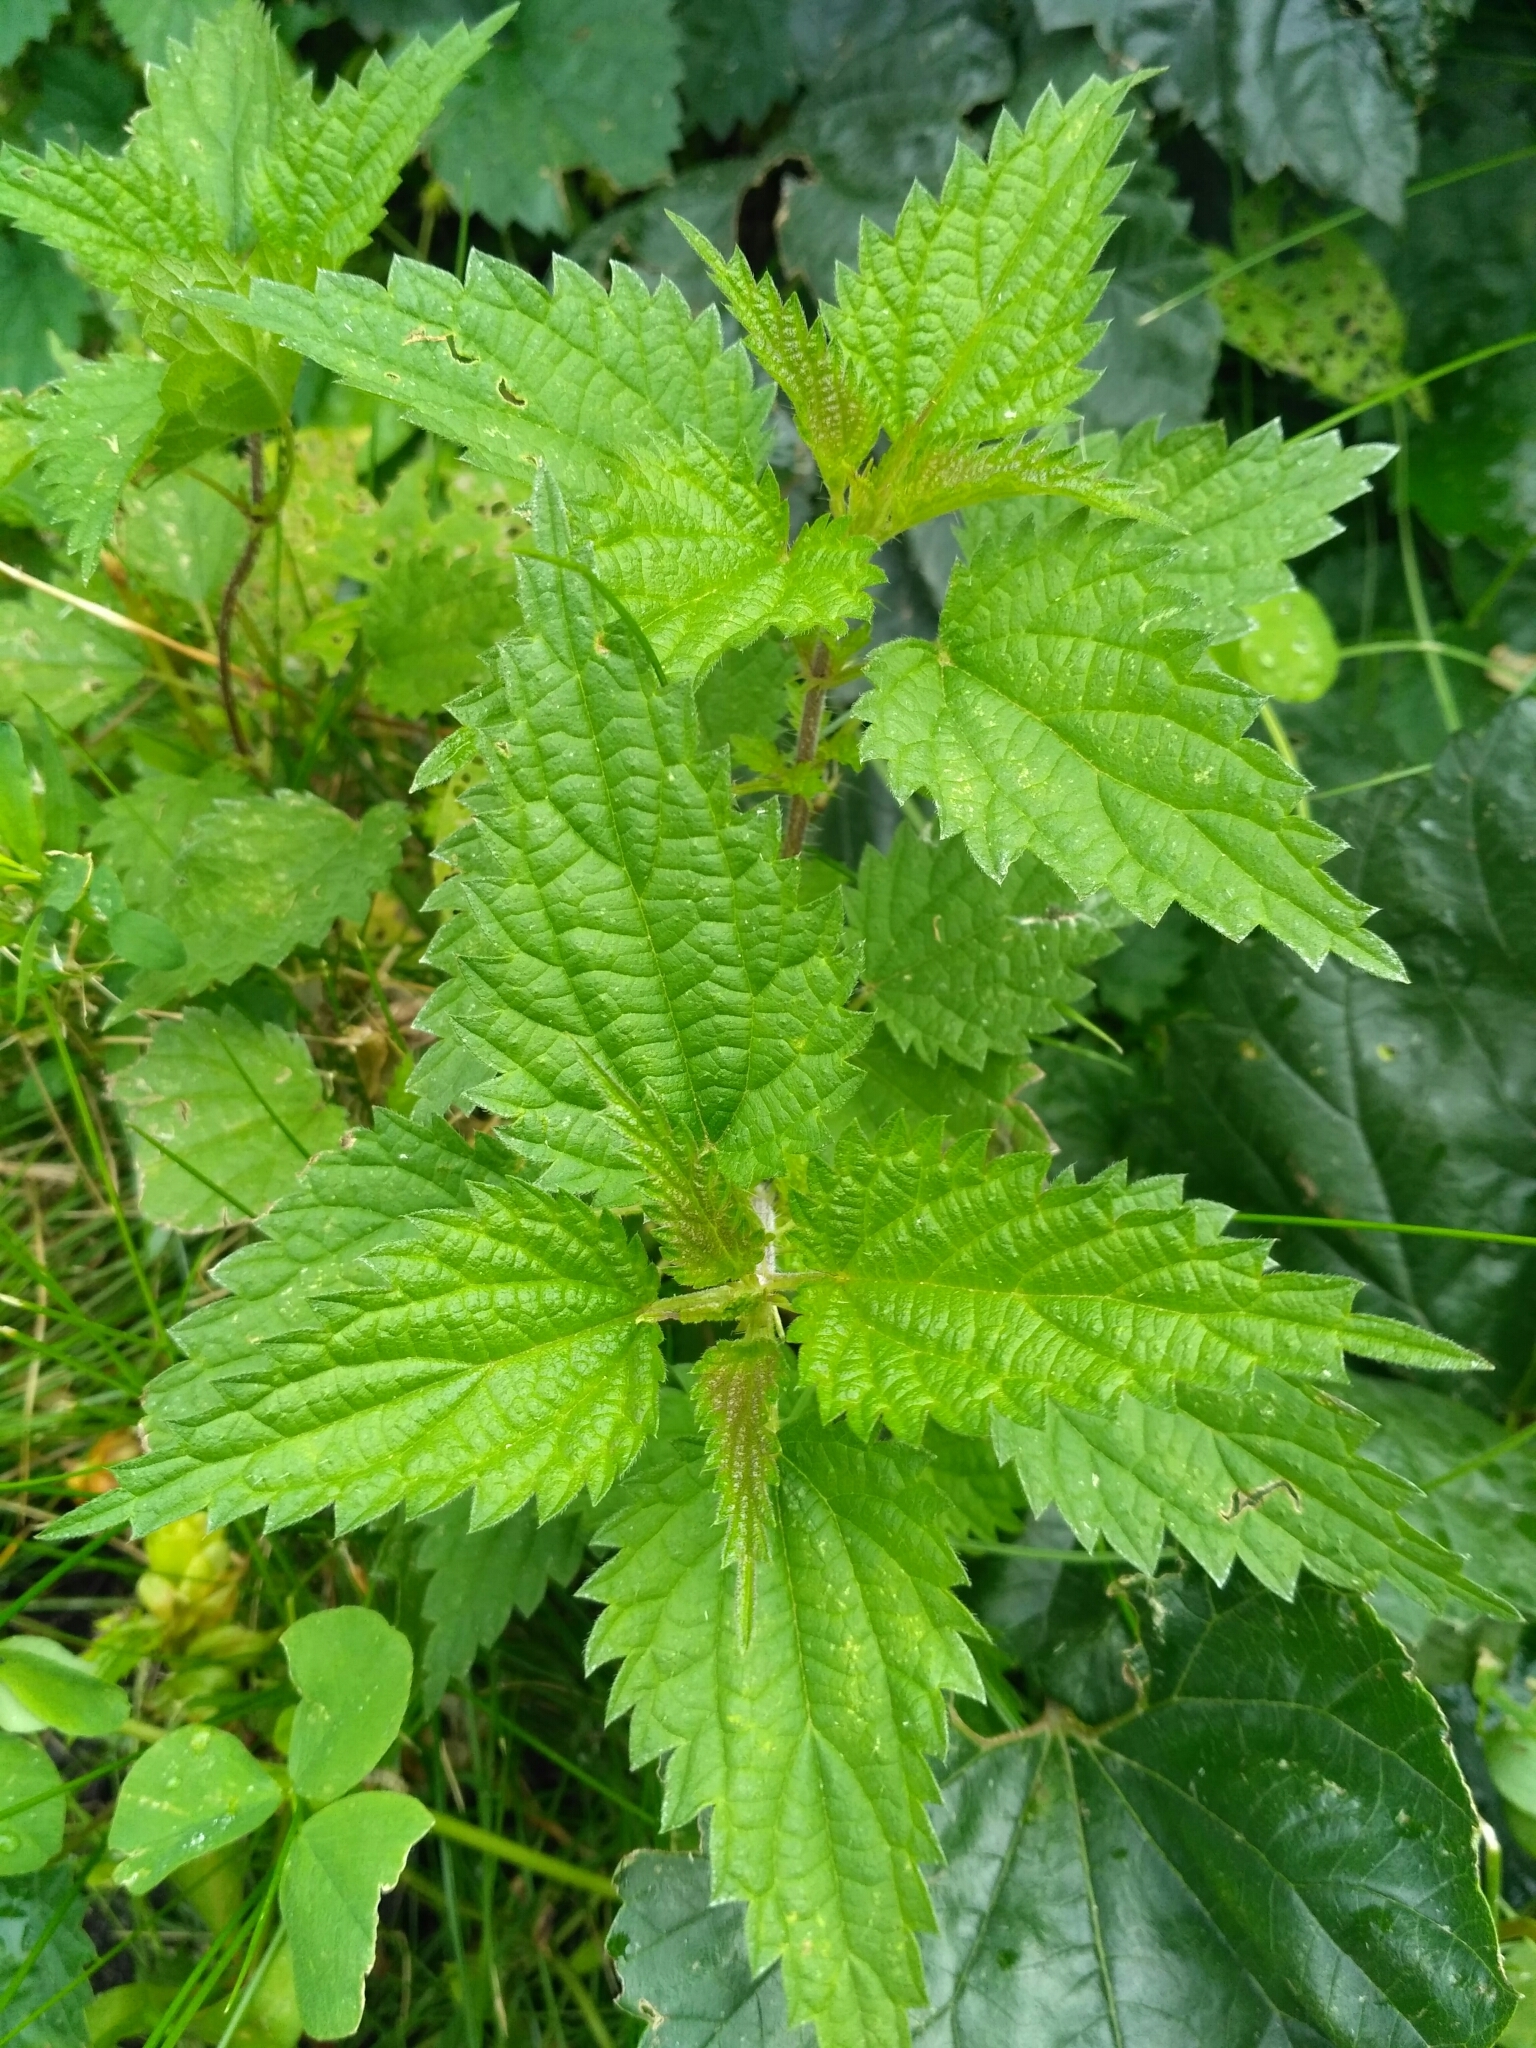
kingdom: Plantae
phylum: Tracheophyta
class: Magnoliopsida
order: Rosales
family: Urticaceae
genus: Urtica
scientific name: Urtica dioica
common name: Common nettle
